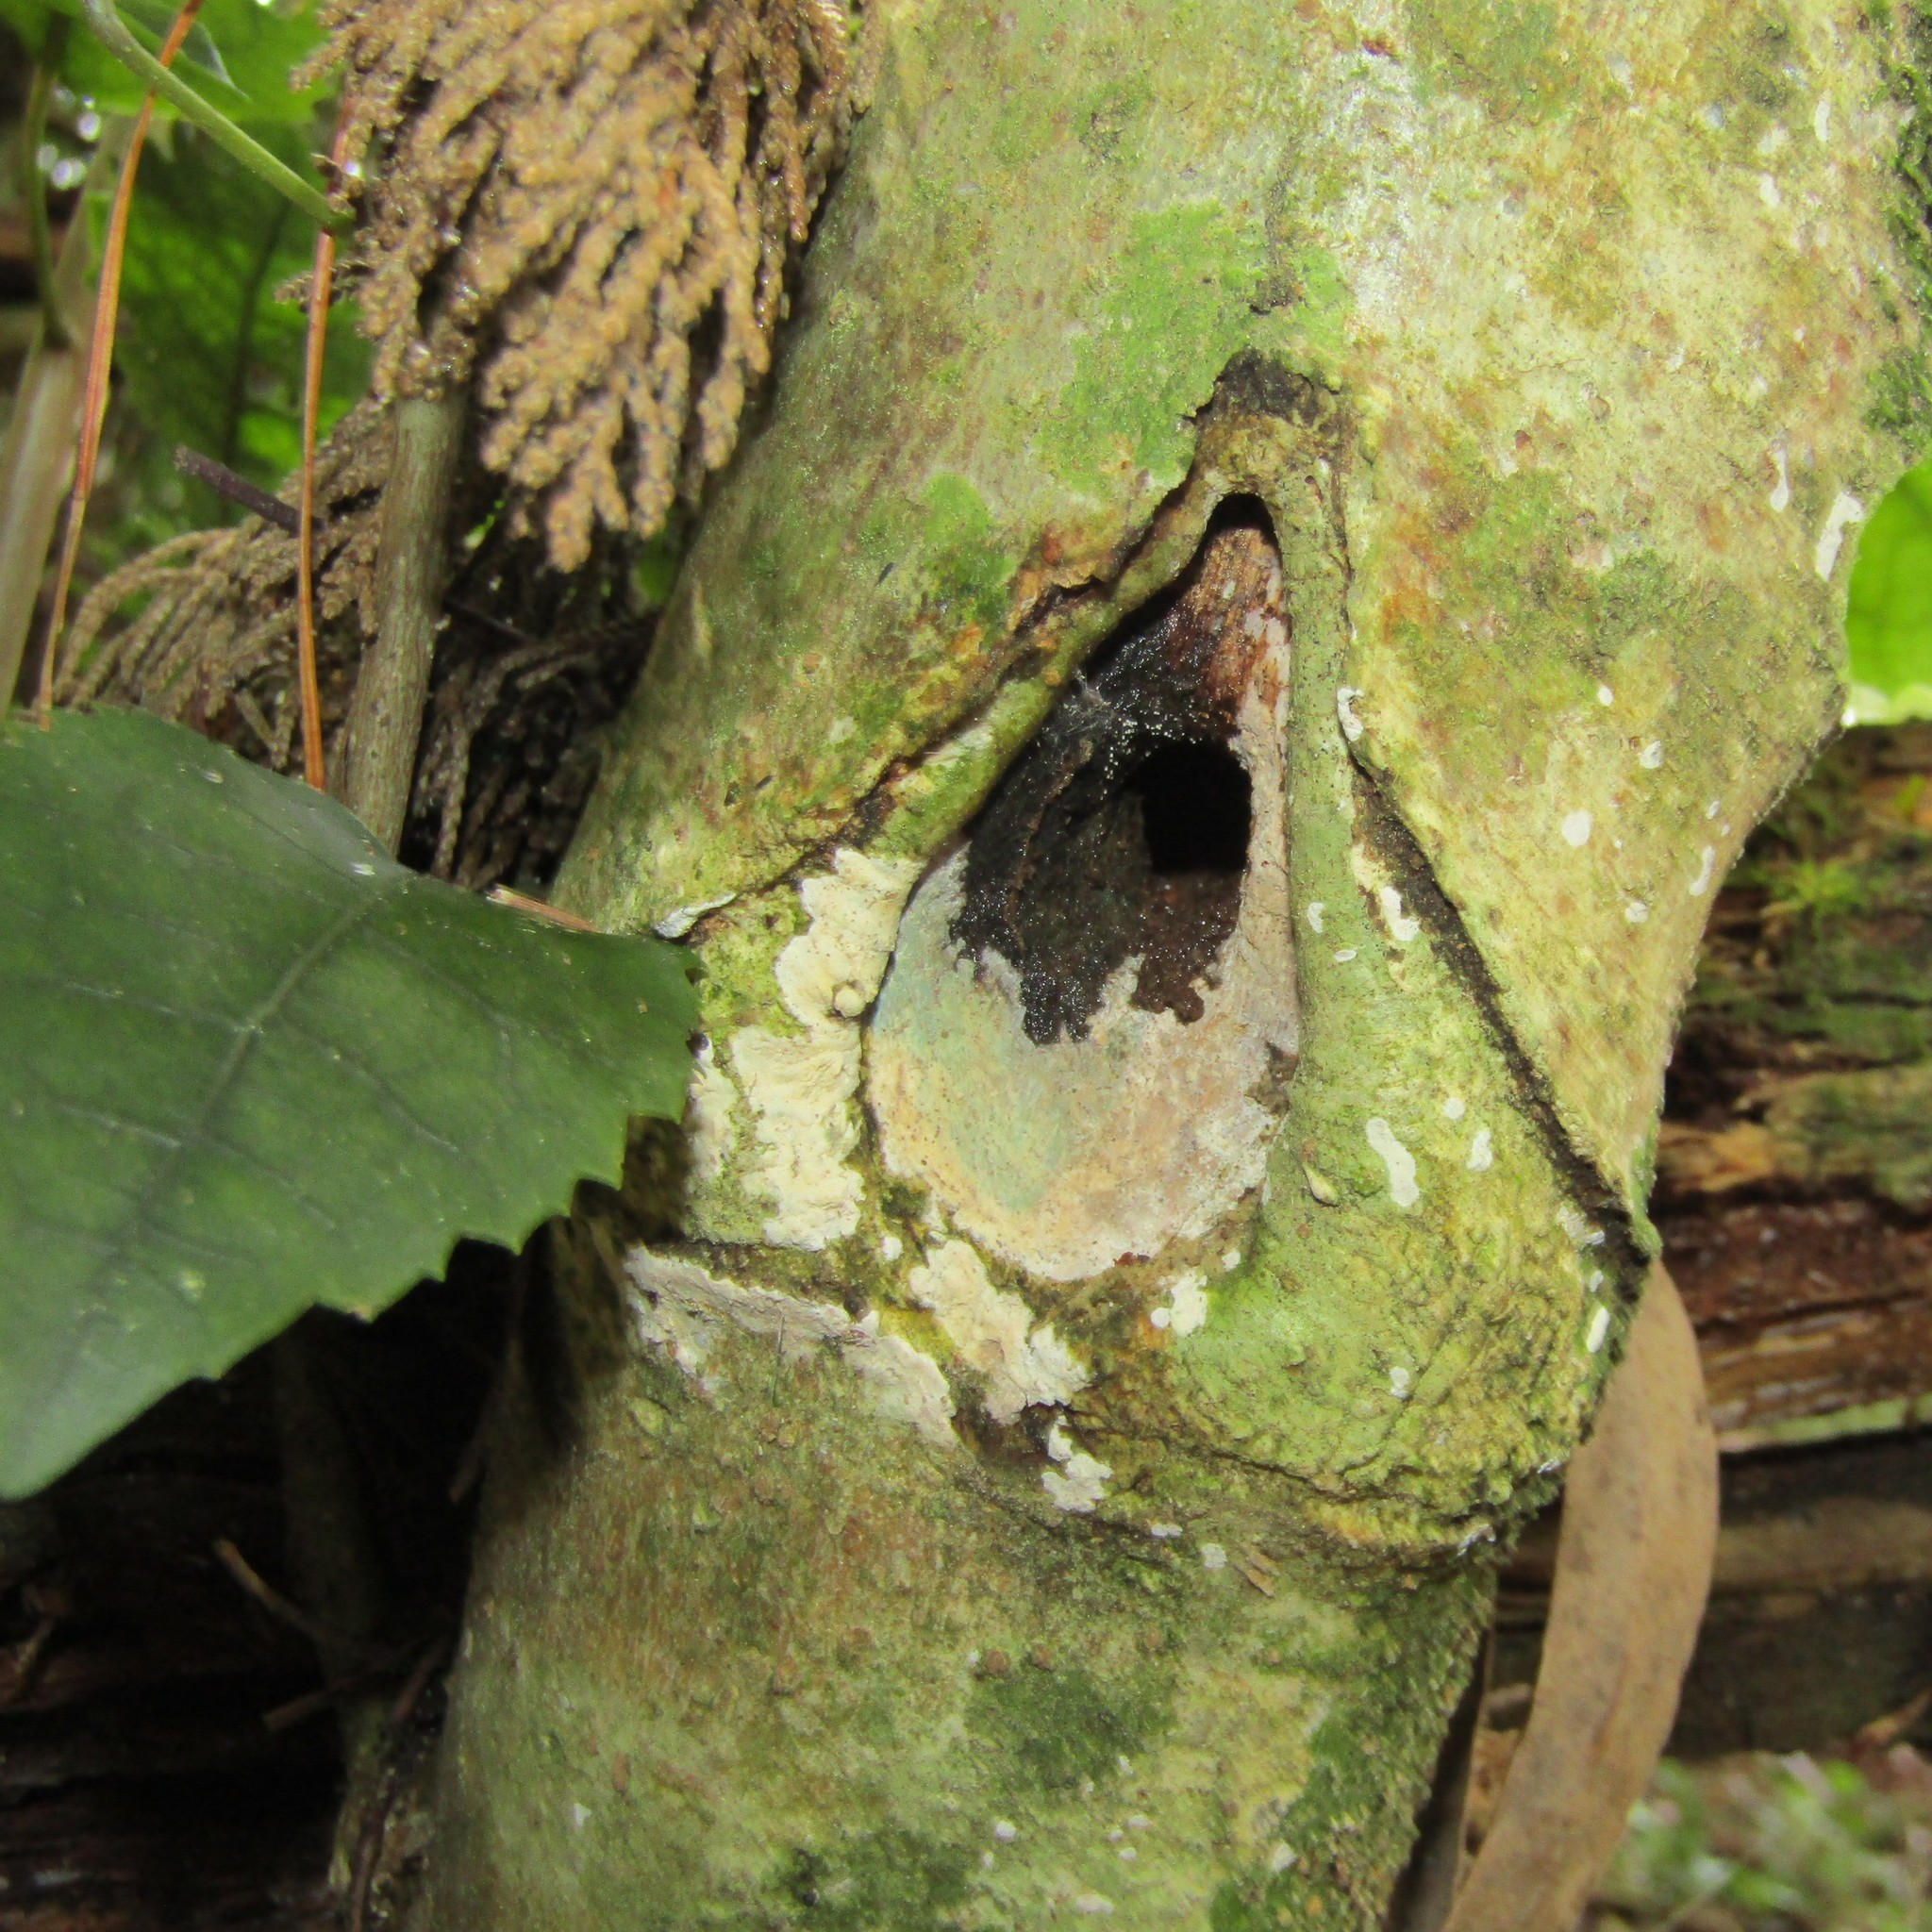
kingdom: Animalia
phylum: Arthropoda
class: Insecta
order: Lepidoptera
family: Hepialidae
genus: Aenetus
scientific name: Aenetus virescens
